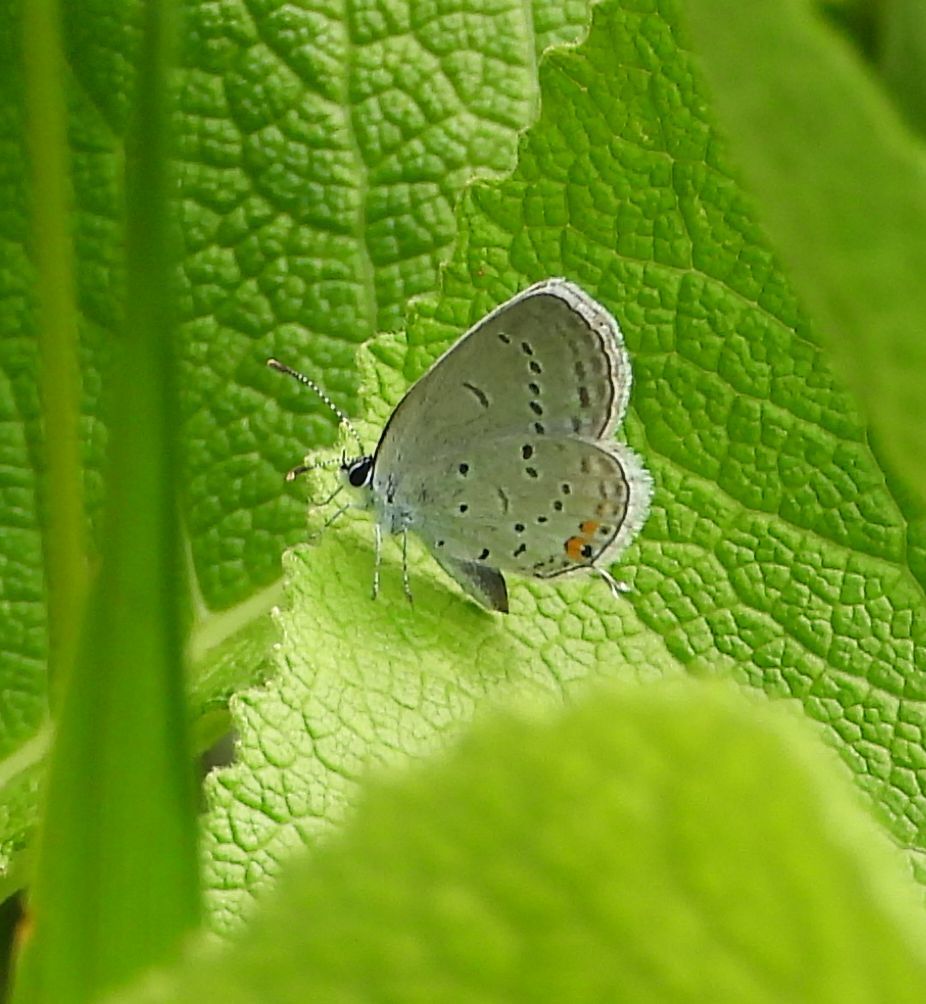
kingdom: Animalia
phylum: Arthropoda
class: Insecta
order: Lepidoptera
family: Lycaenidae
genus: Elkalyce
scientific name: Elkalyce comyntas
